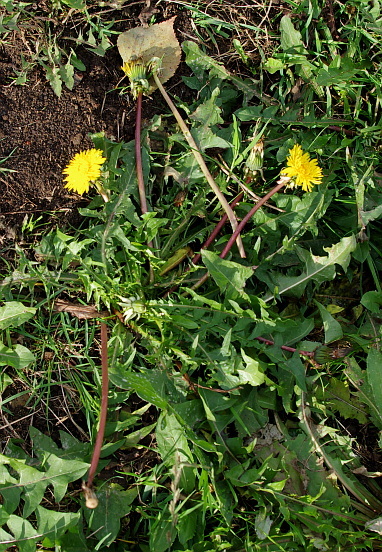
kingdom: Plantae
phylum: Tracheophyta
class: Magnoliopsida
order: Asterales
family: Asteraceae
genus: Taraxacum
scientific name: Taraxacum officinale
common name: Common dandelion
